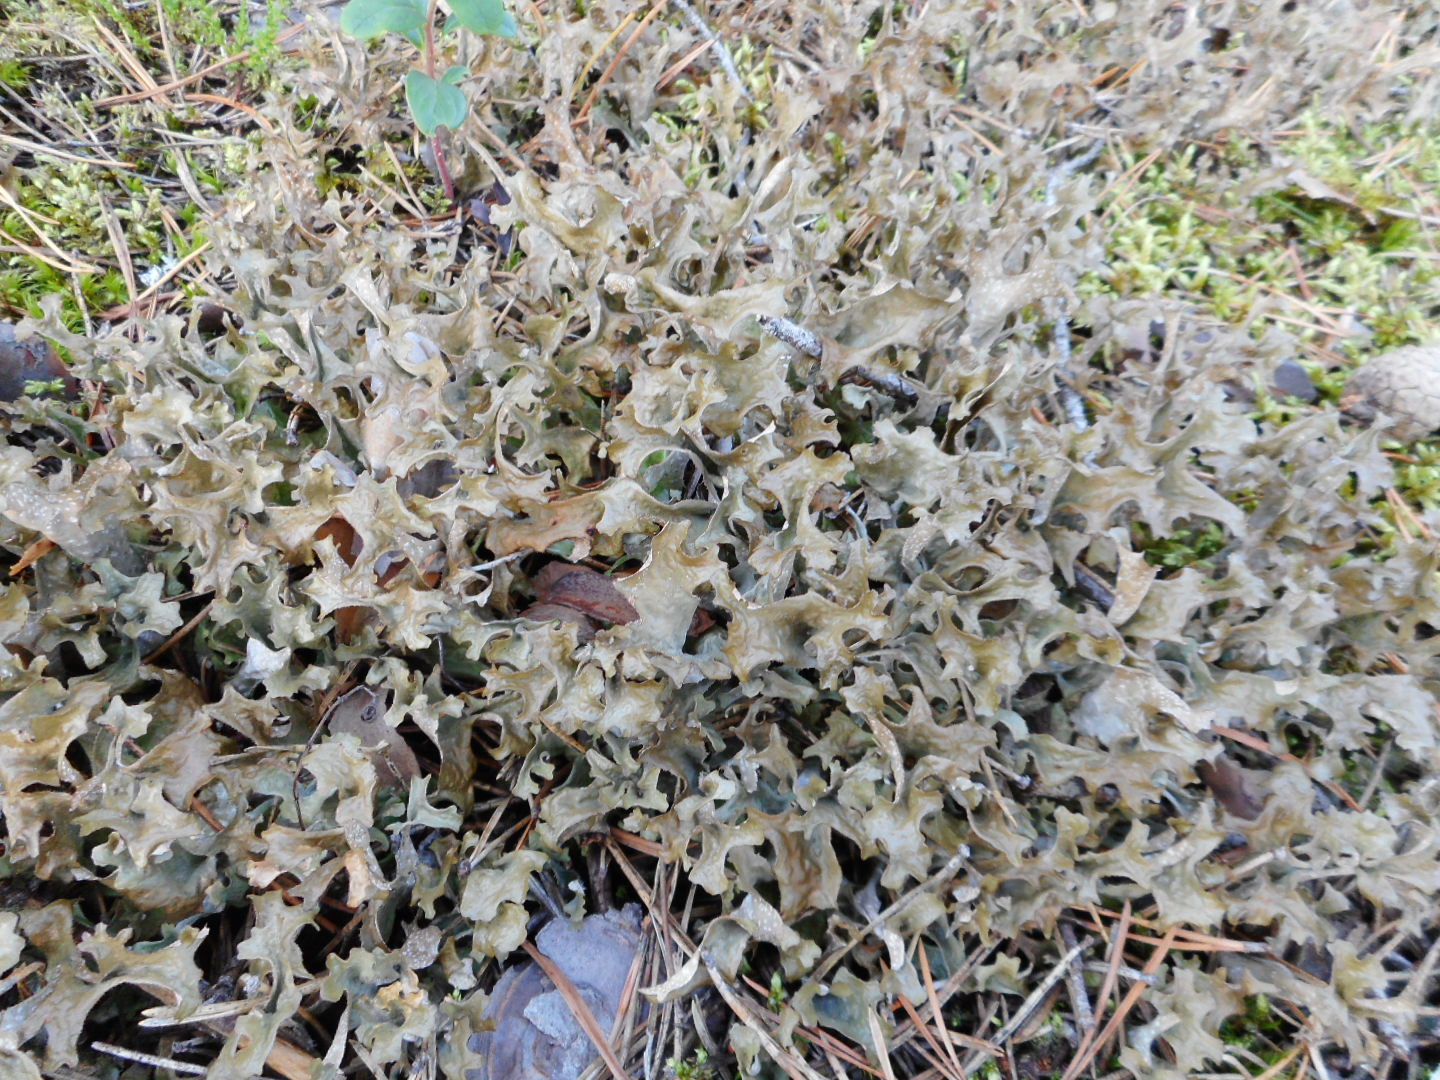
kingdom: Fungi
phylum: Ascomycota
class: Lecanoromycetes
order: Lecanorales
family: Parmeliaceae
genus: Cetraria
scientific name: Cetraria islandica
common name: Iceland lichen
